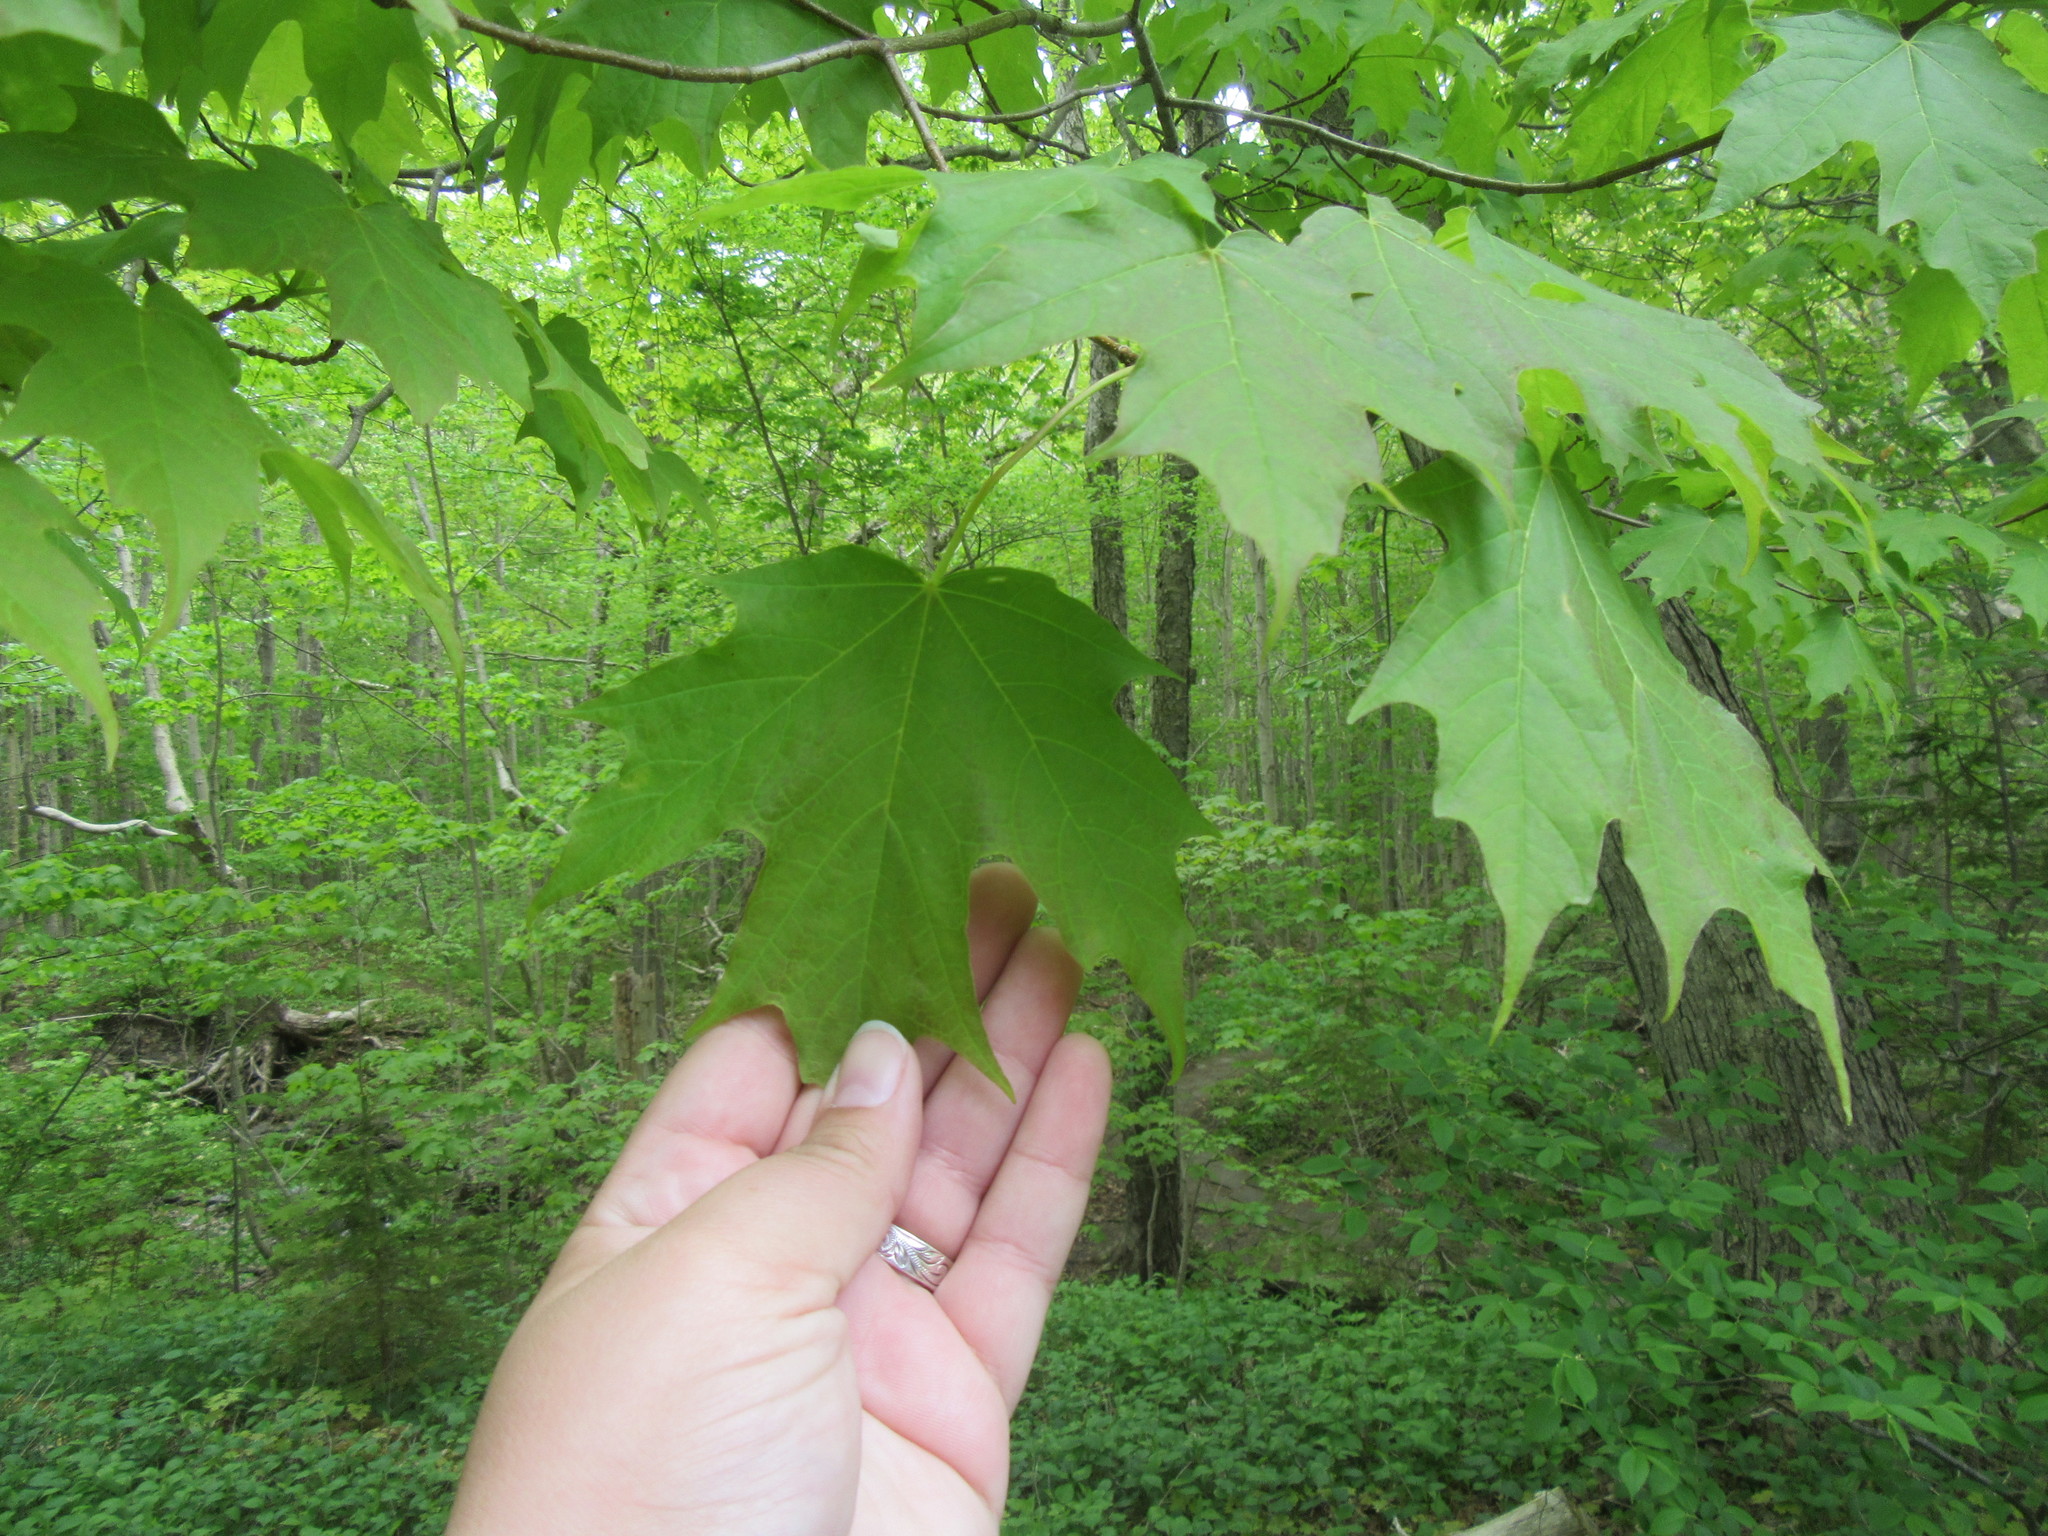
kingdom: Plantae
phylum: Tracheophyta
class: Magnoliopsida
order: Sapindales
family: Sapindaceae
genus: Acer
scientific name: Acer saccharum
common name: Sugar maple
